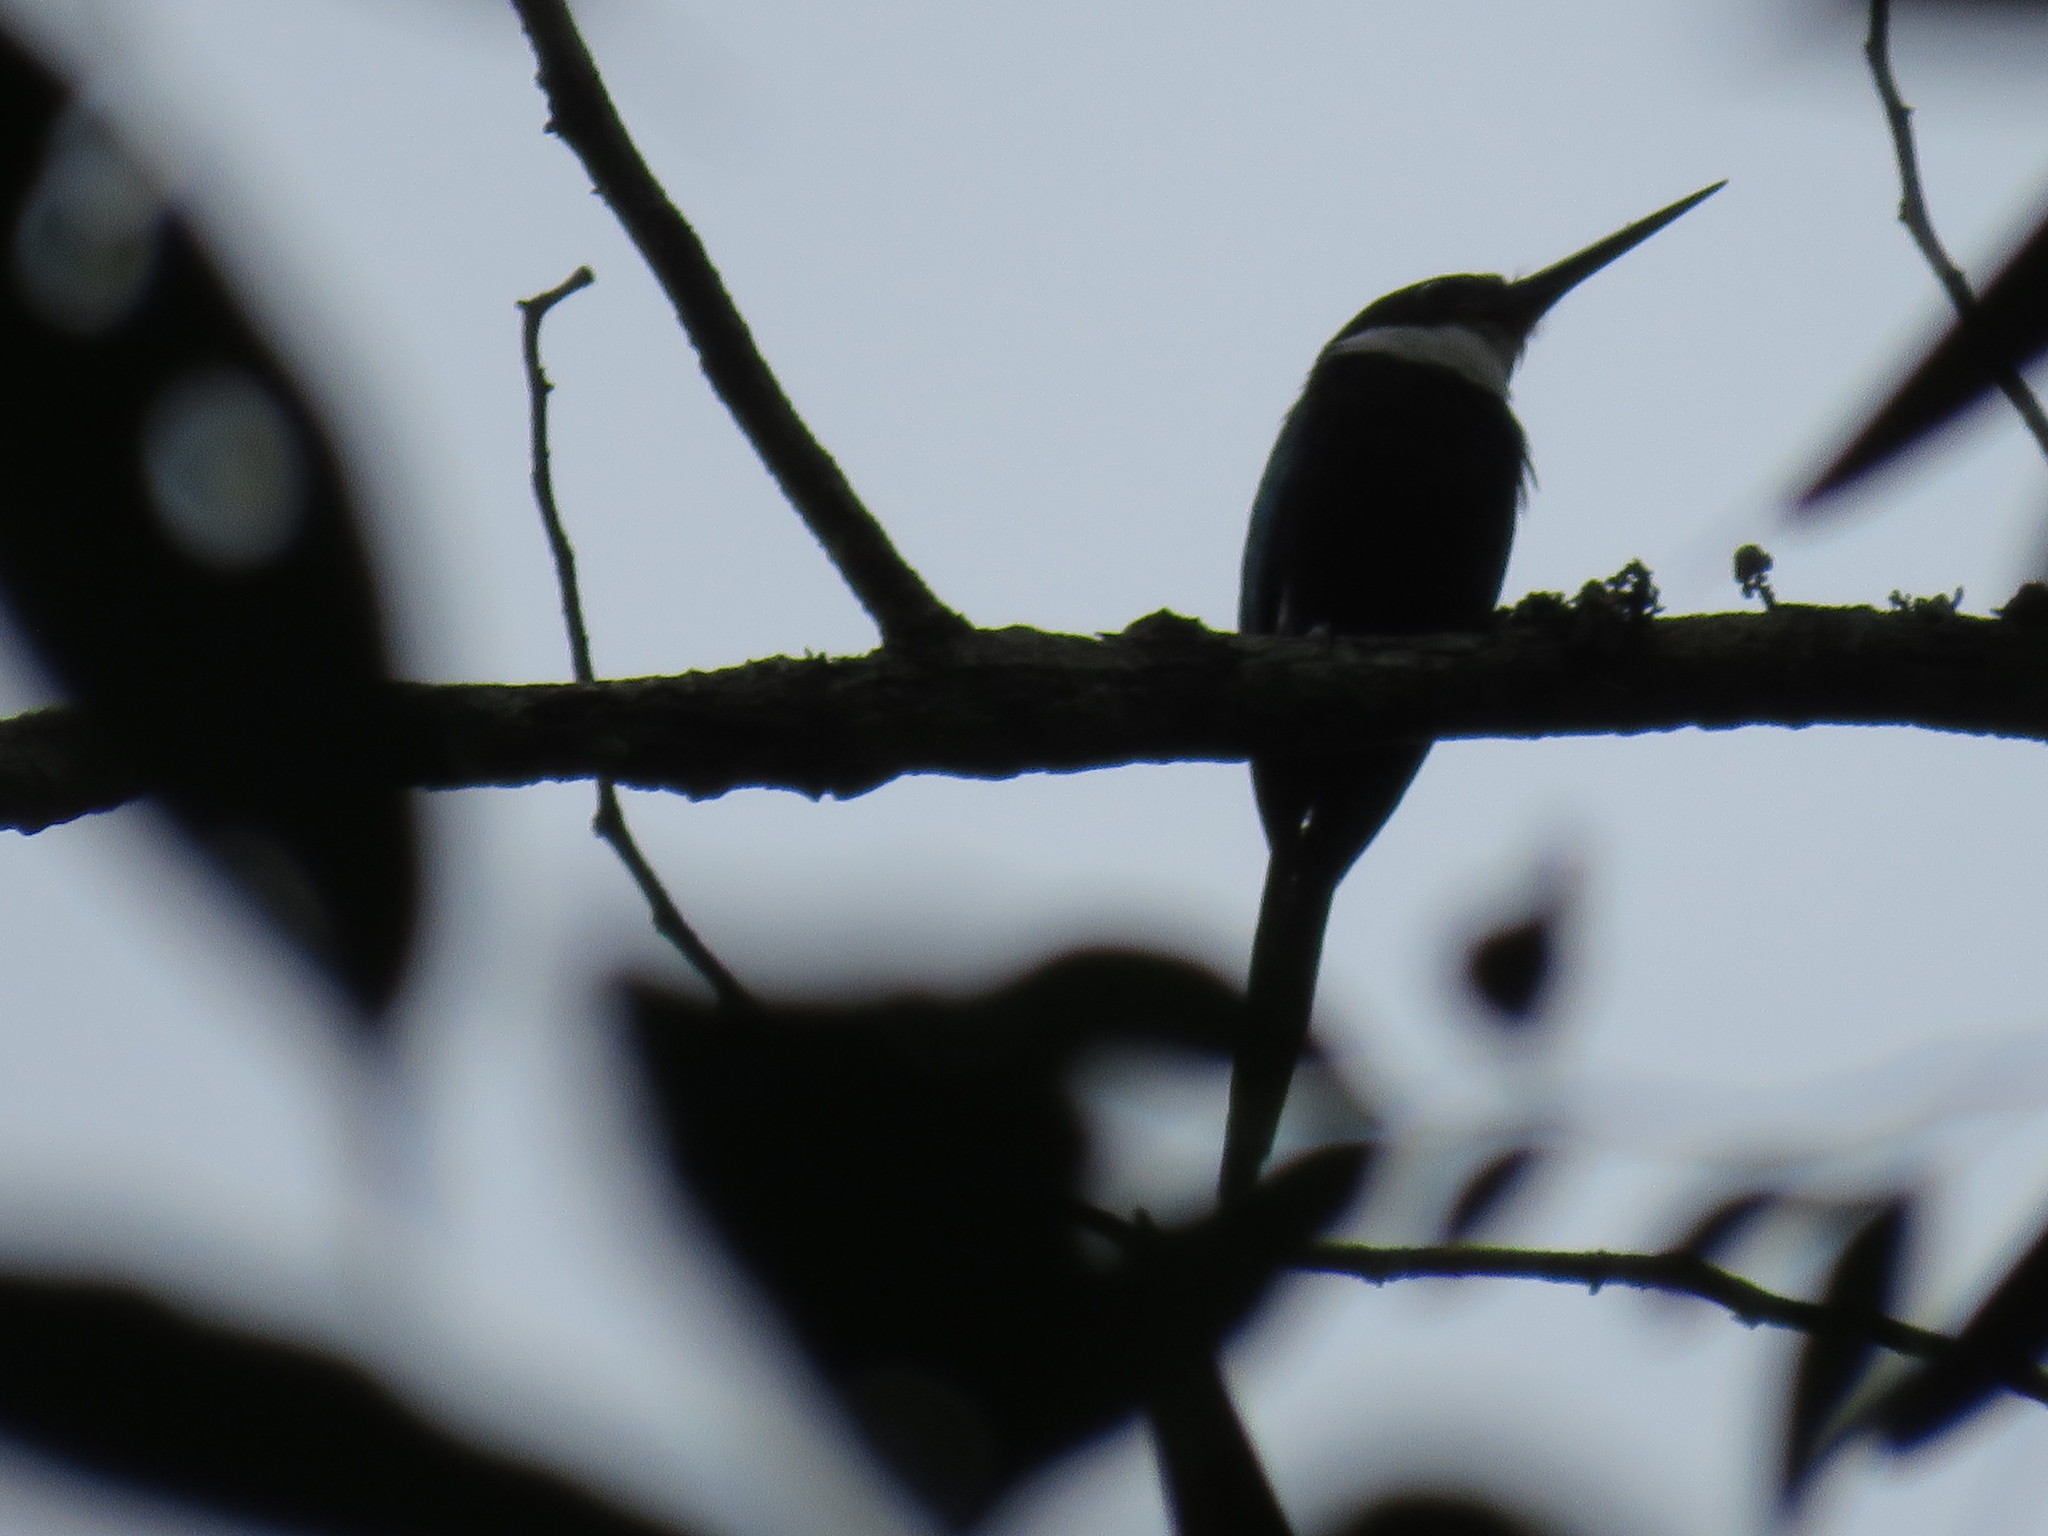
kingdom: Animalia
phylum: Chordata
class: Aves
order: Piciformes
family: Galbulidae
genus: Galbula
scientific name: Galbula dea
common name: Paradise jacamar
